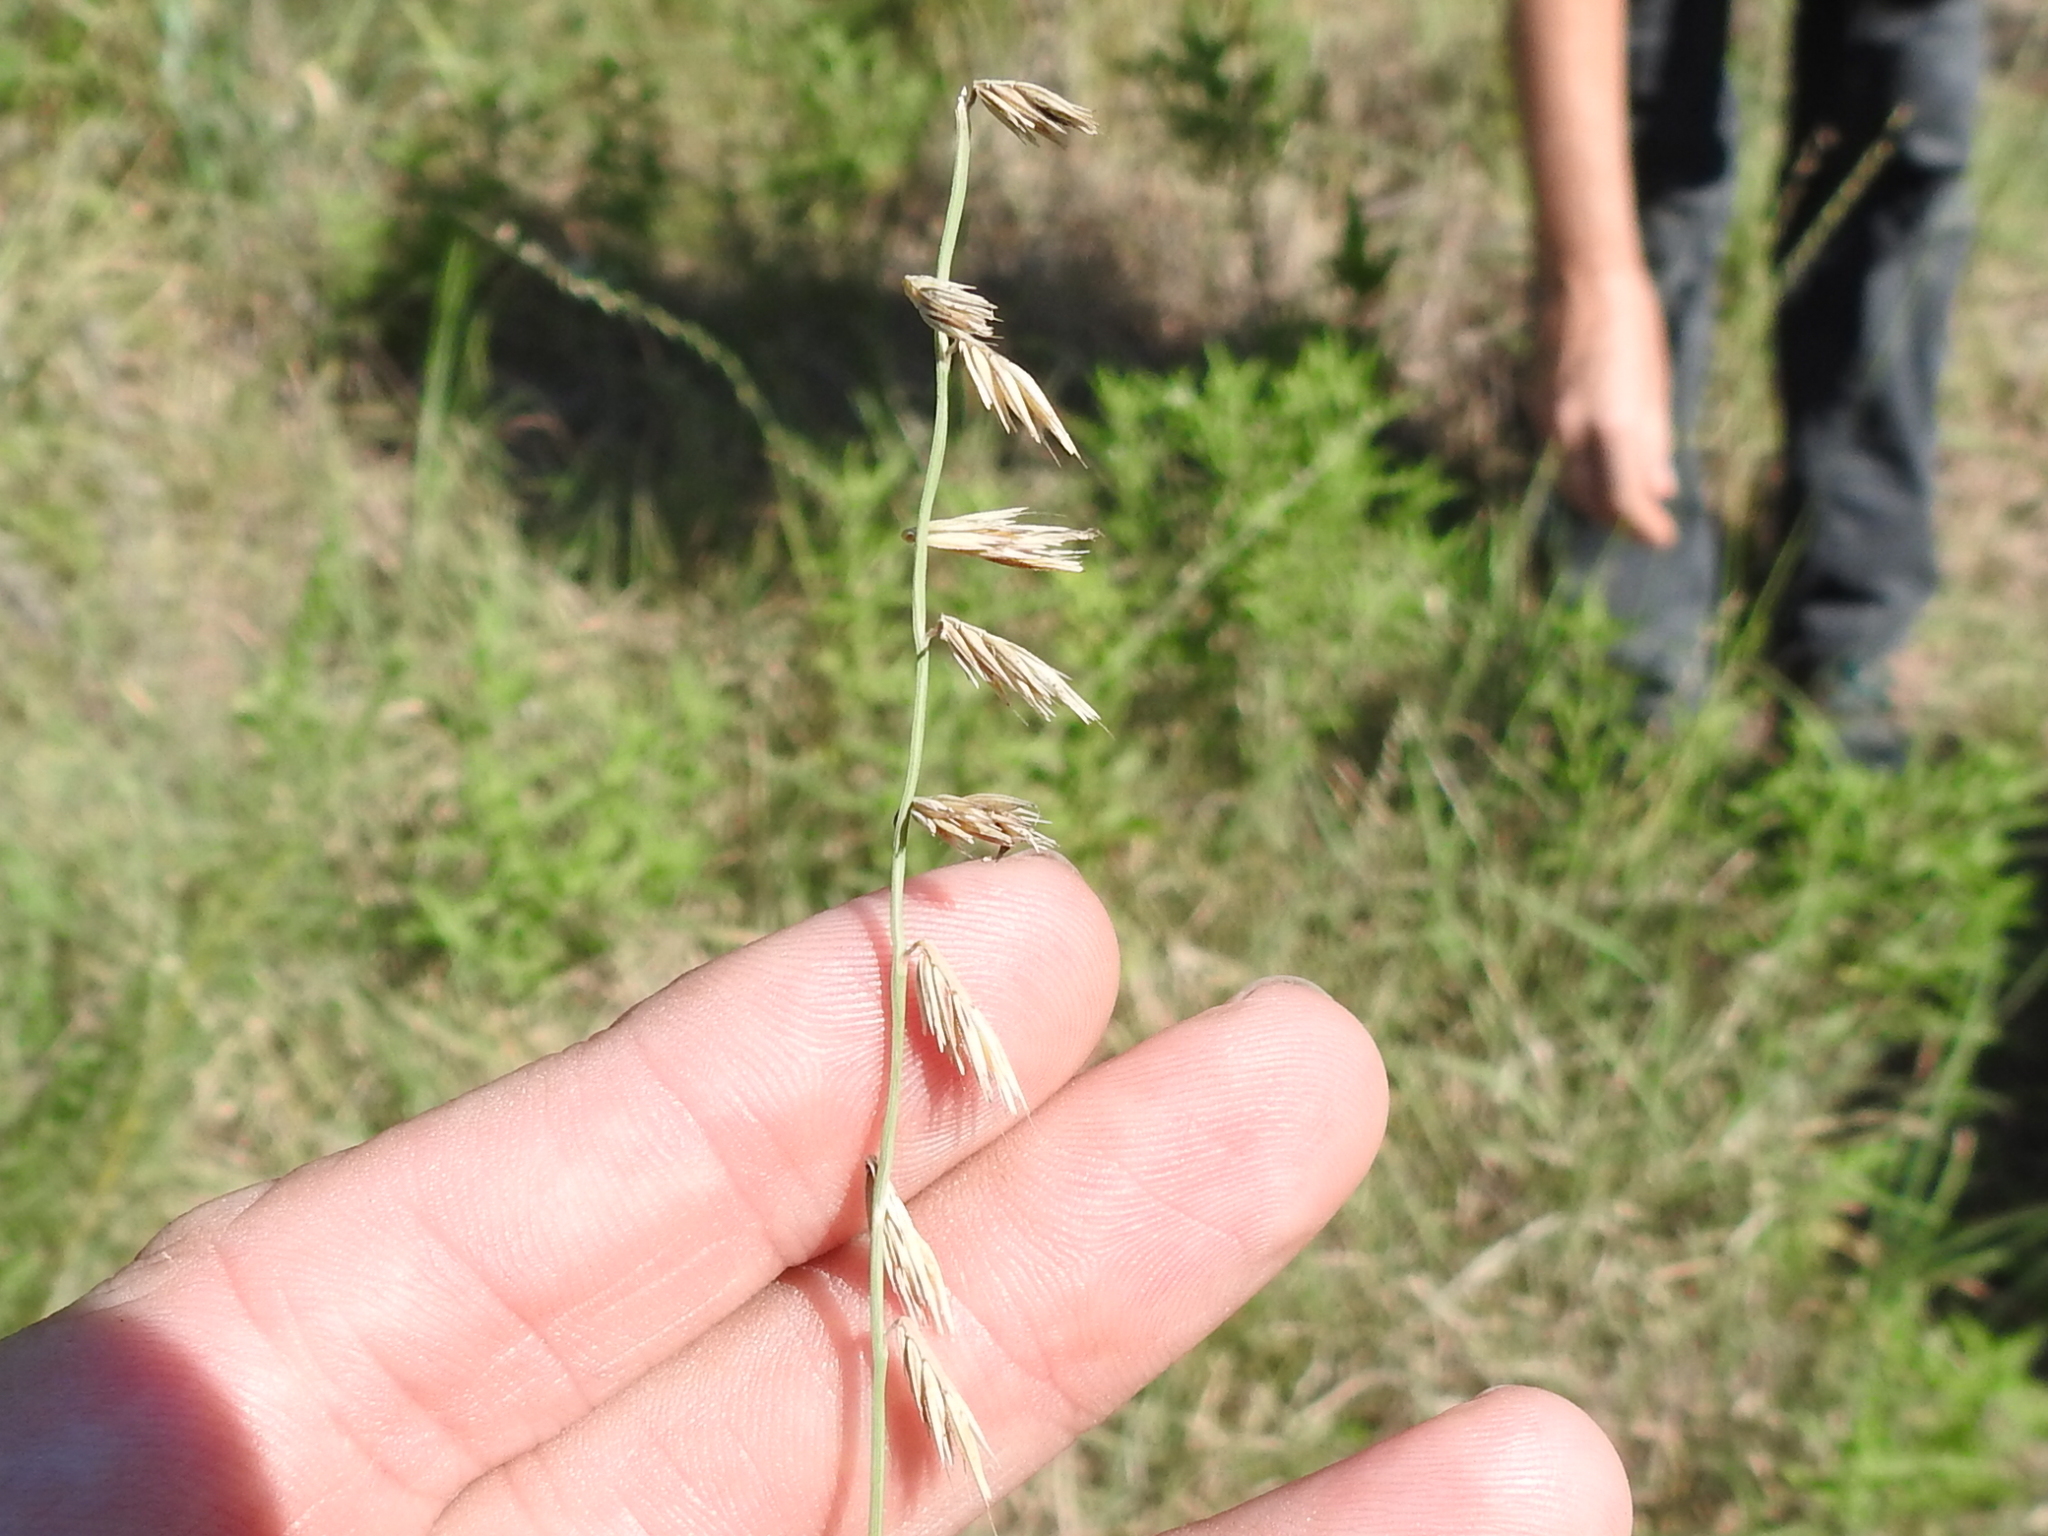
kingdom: Plantae
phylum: Tracheophyta
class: Liliopsida
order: Poales
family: Poaceae
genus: Bouteloua
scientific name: Bouteloua curtipendula
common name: Side-oats grama
